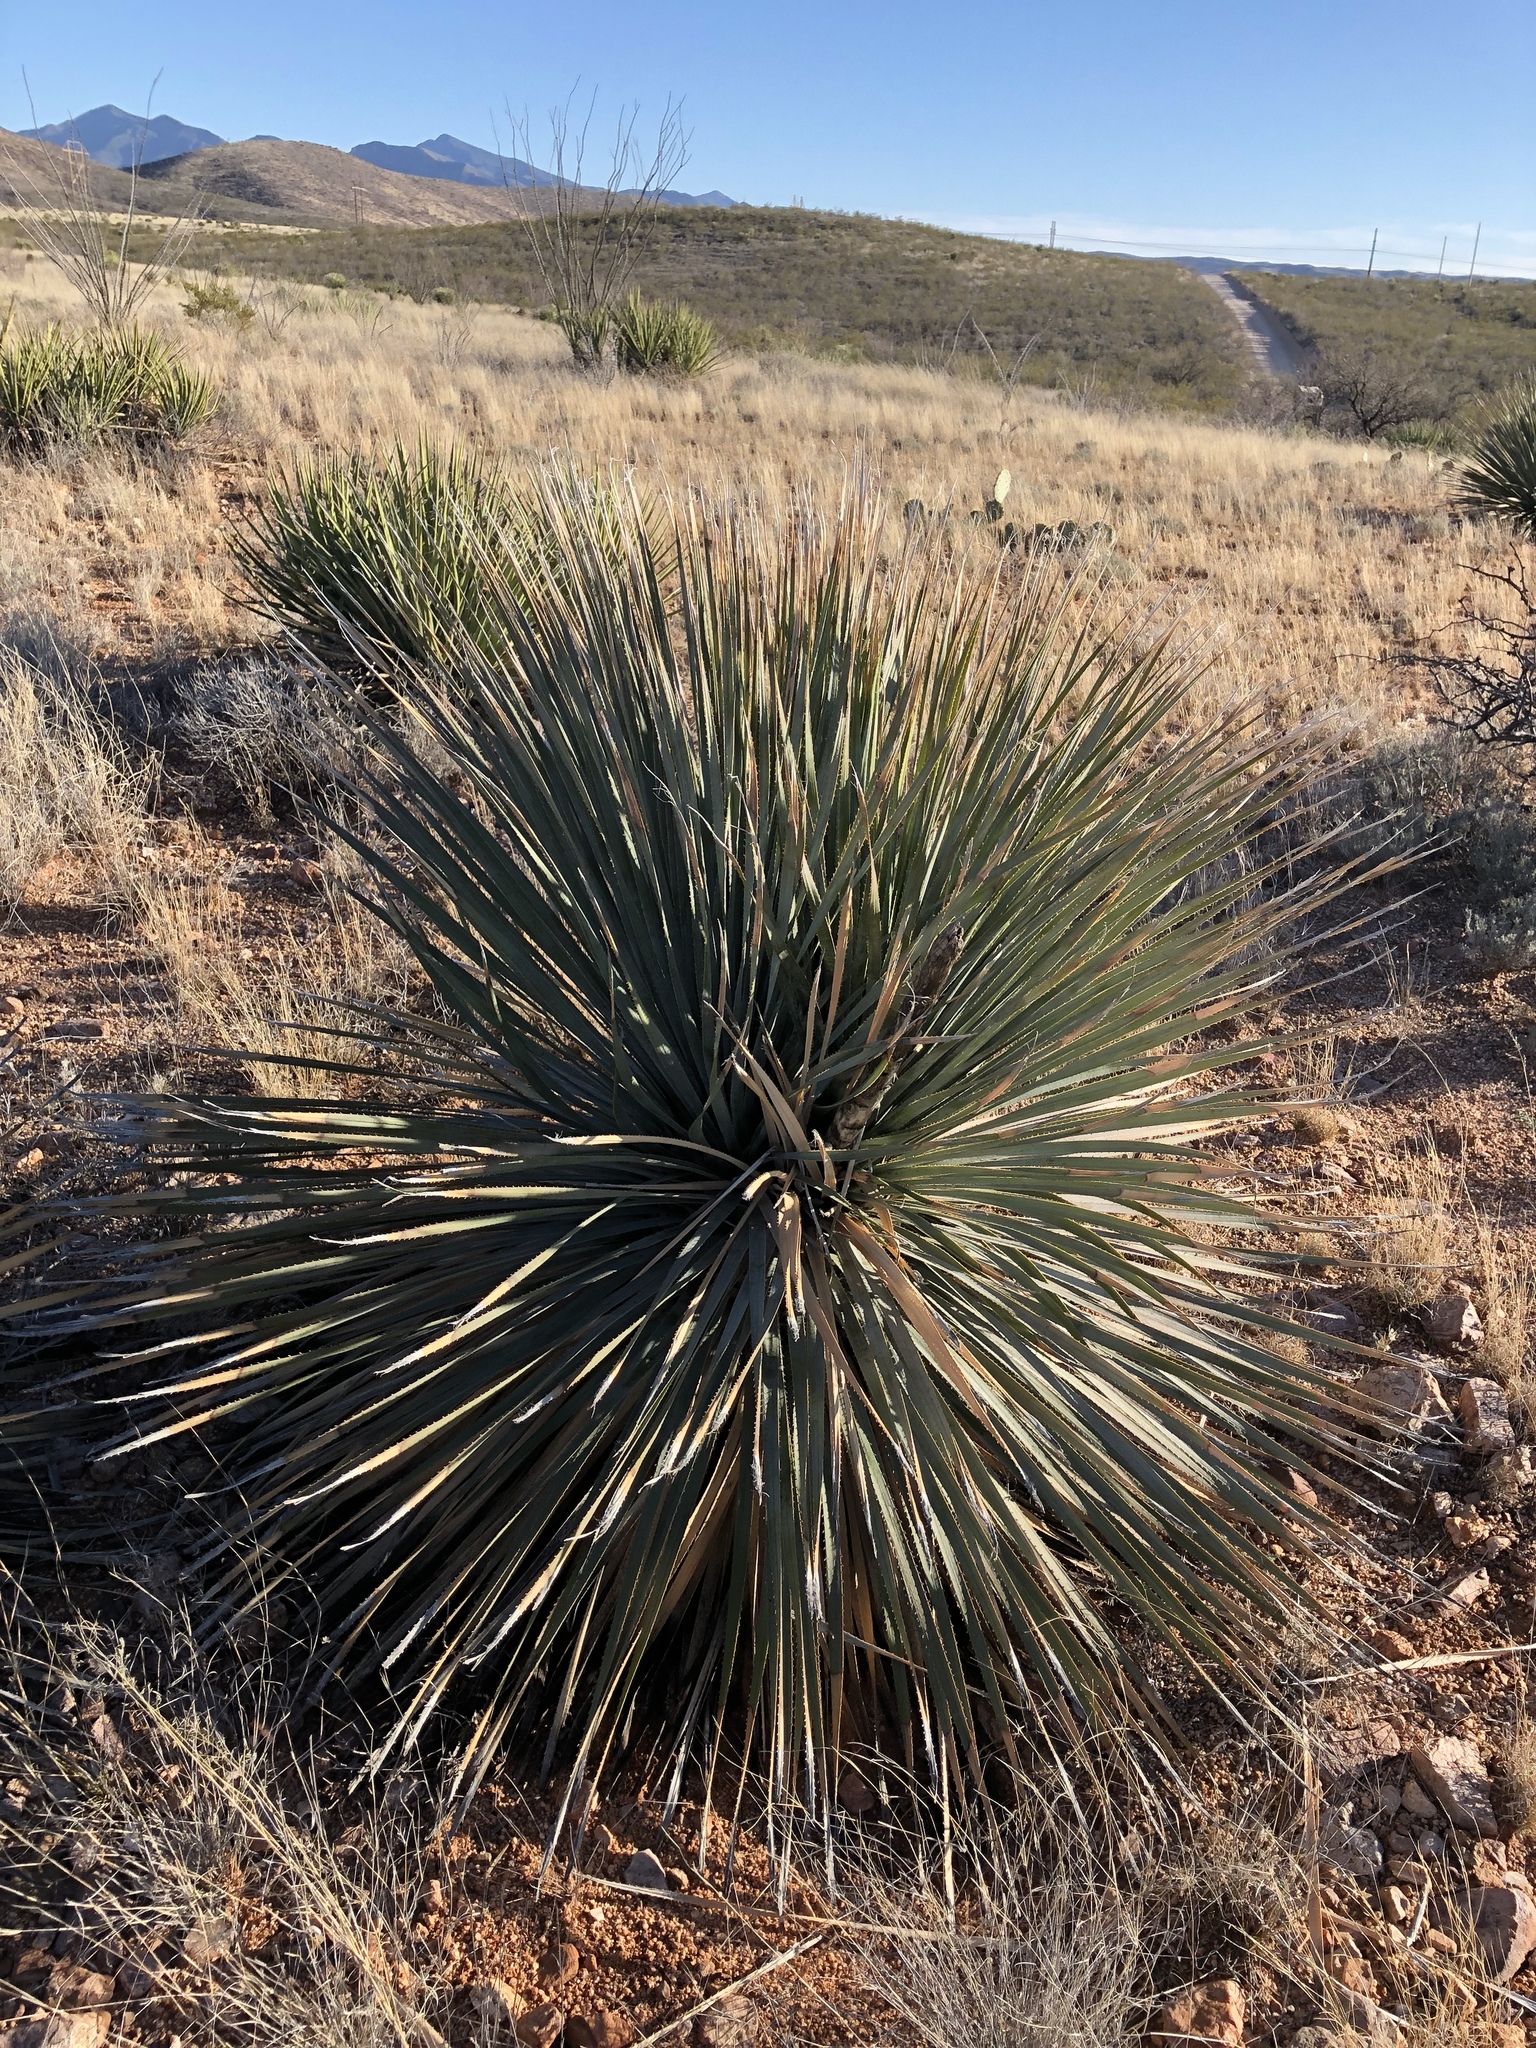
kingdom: Plantae
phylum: Tracheophyta
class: Liliopsida
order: Asparagales
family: Asparagaceae
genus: Dasylirion
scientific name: Dasylirion wheeleri
